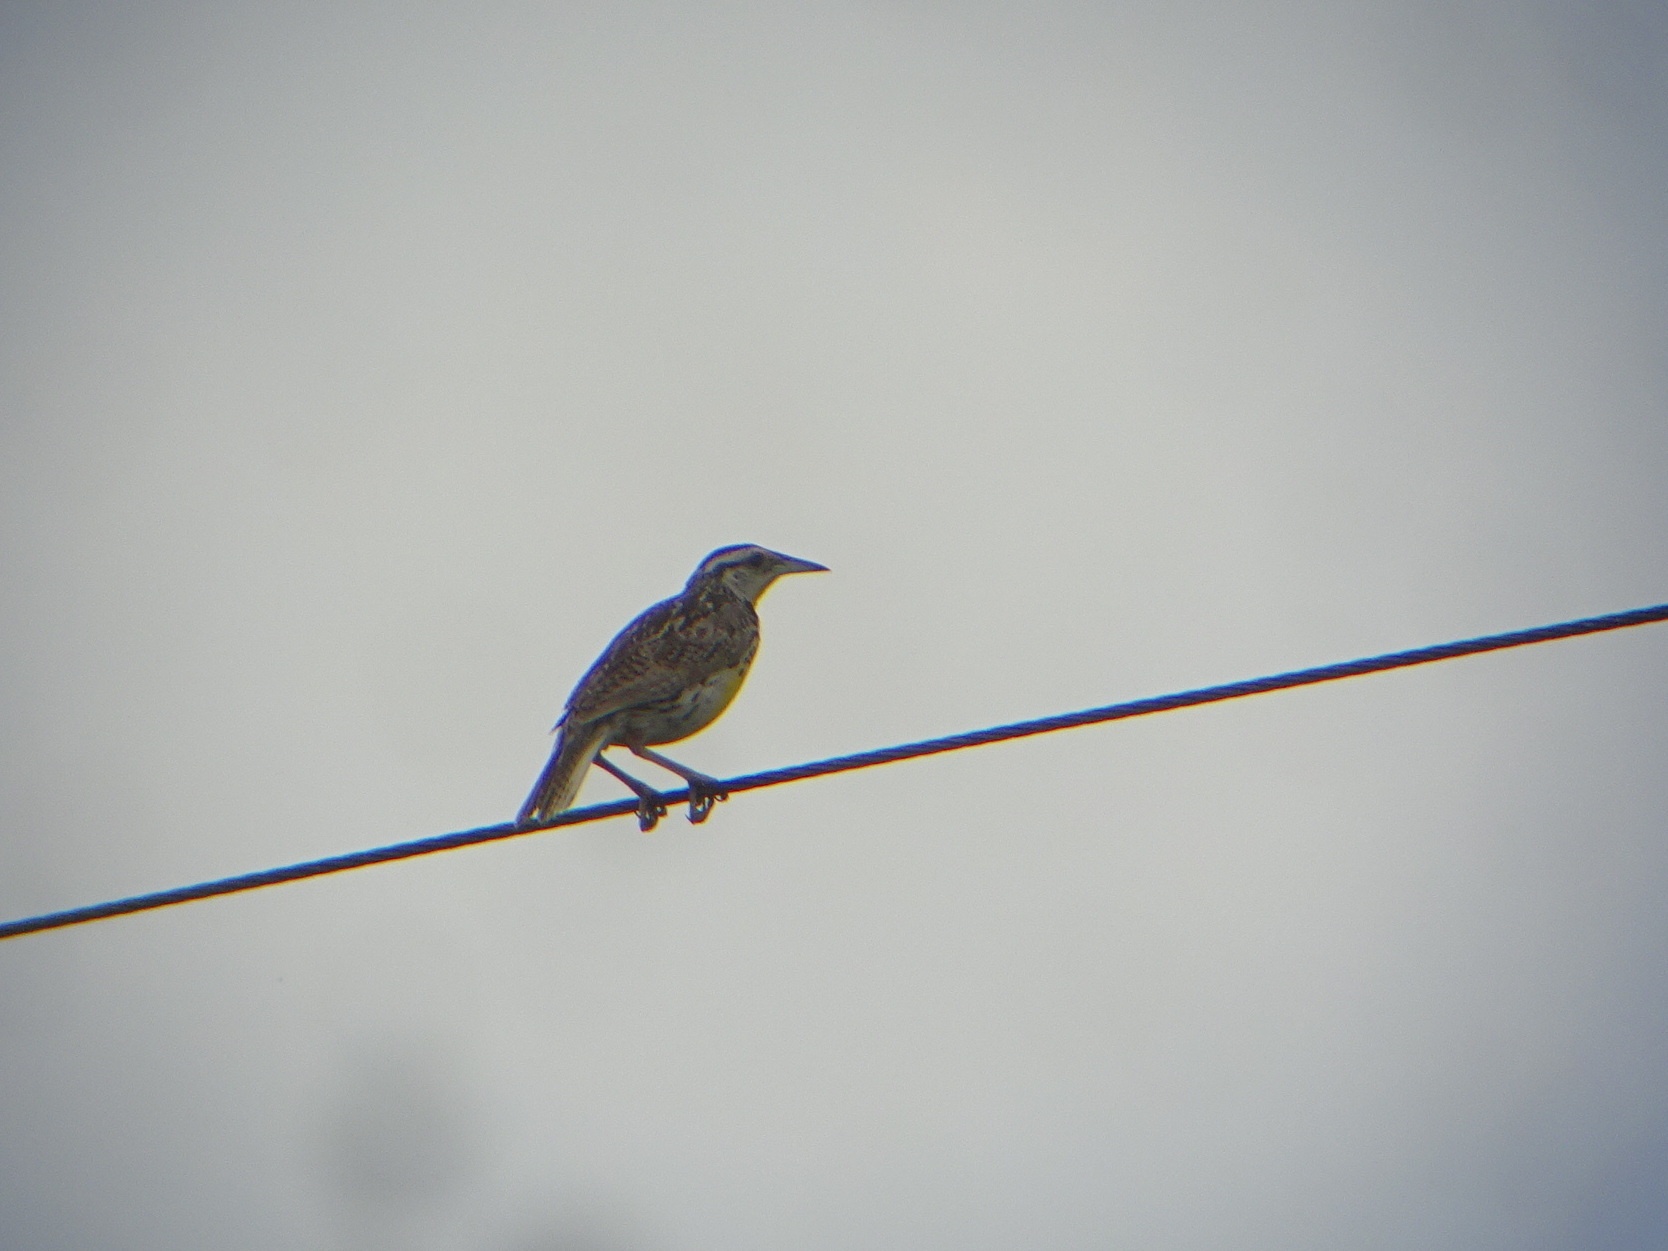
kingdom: Animalia
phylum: Chordata
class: Aves
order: Passeriformes
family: Icteridae
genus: Sturnella
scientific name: Sturnella magna
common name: Eastern meadowlark
